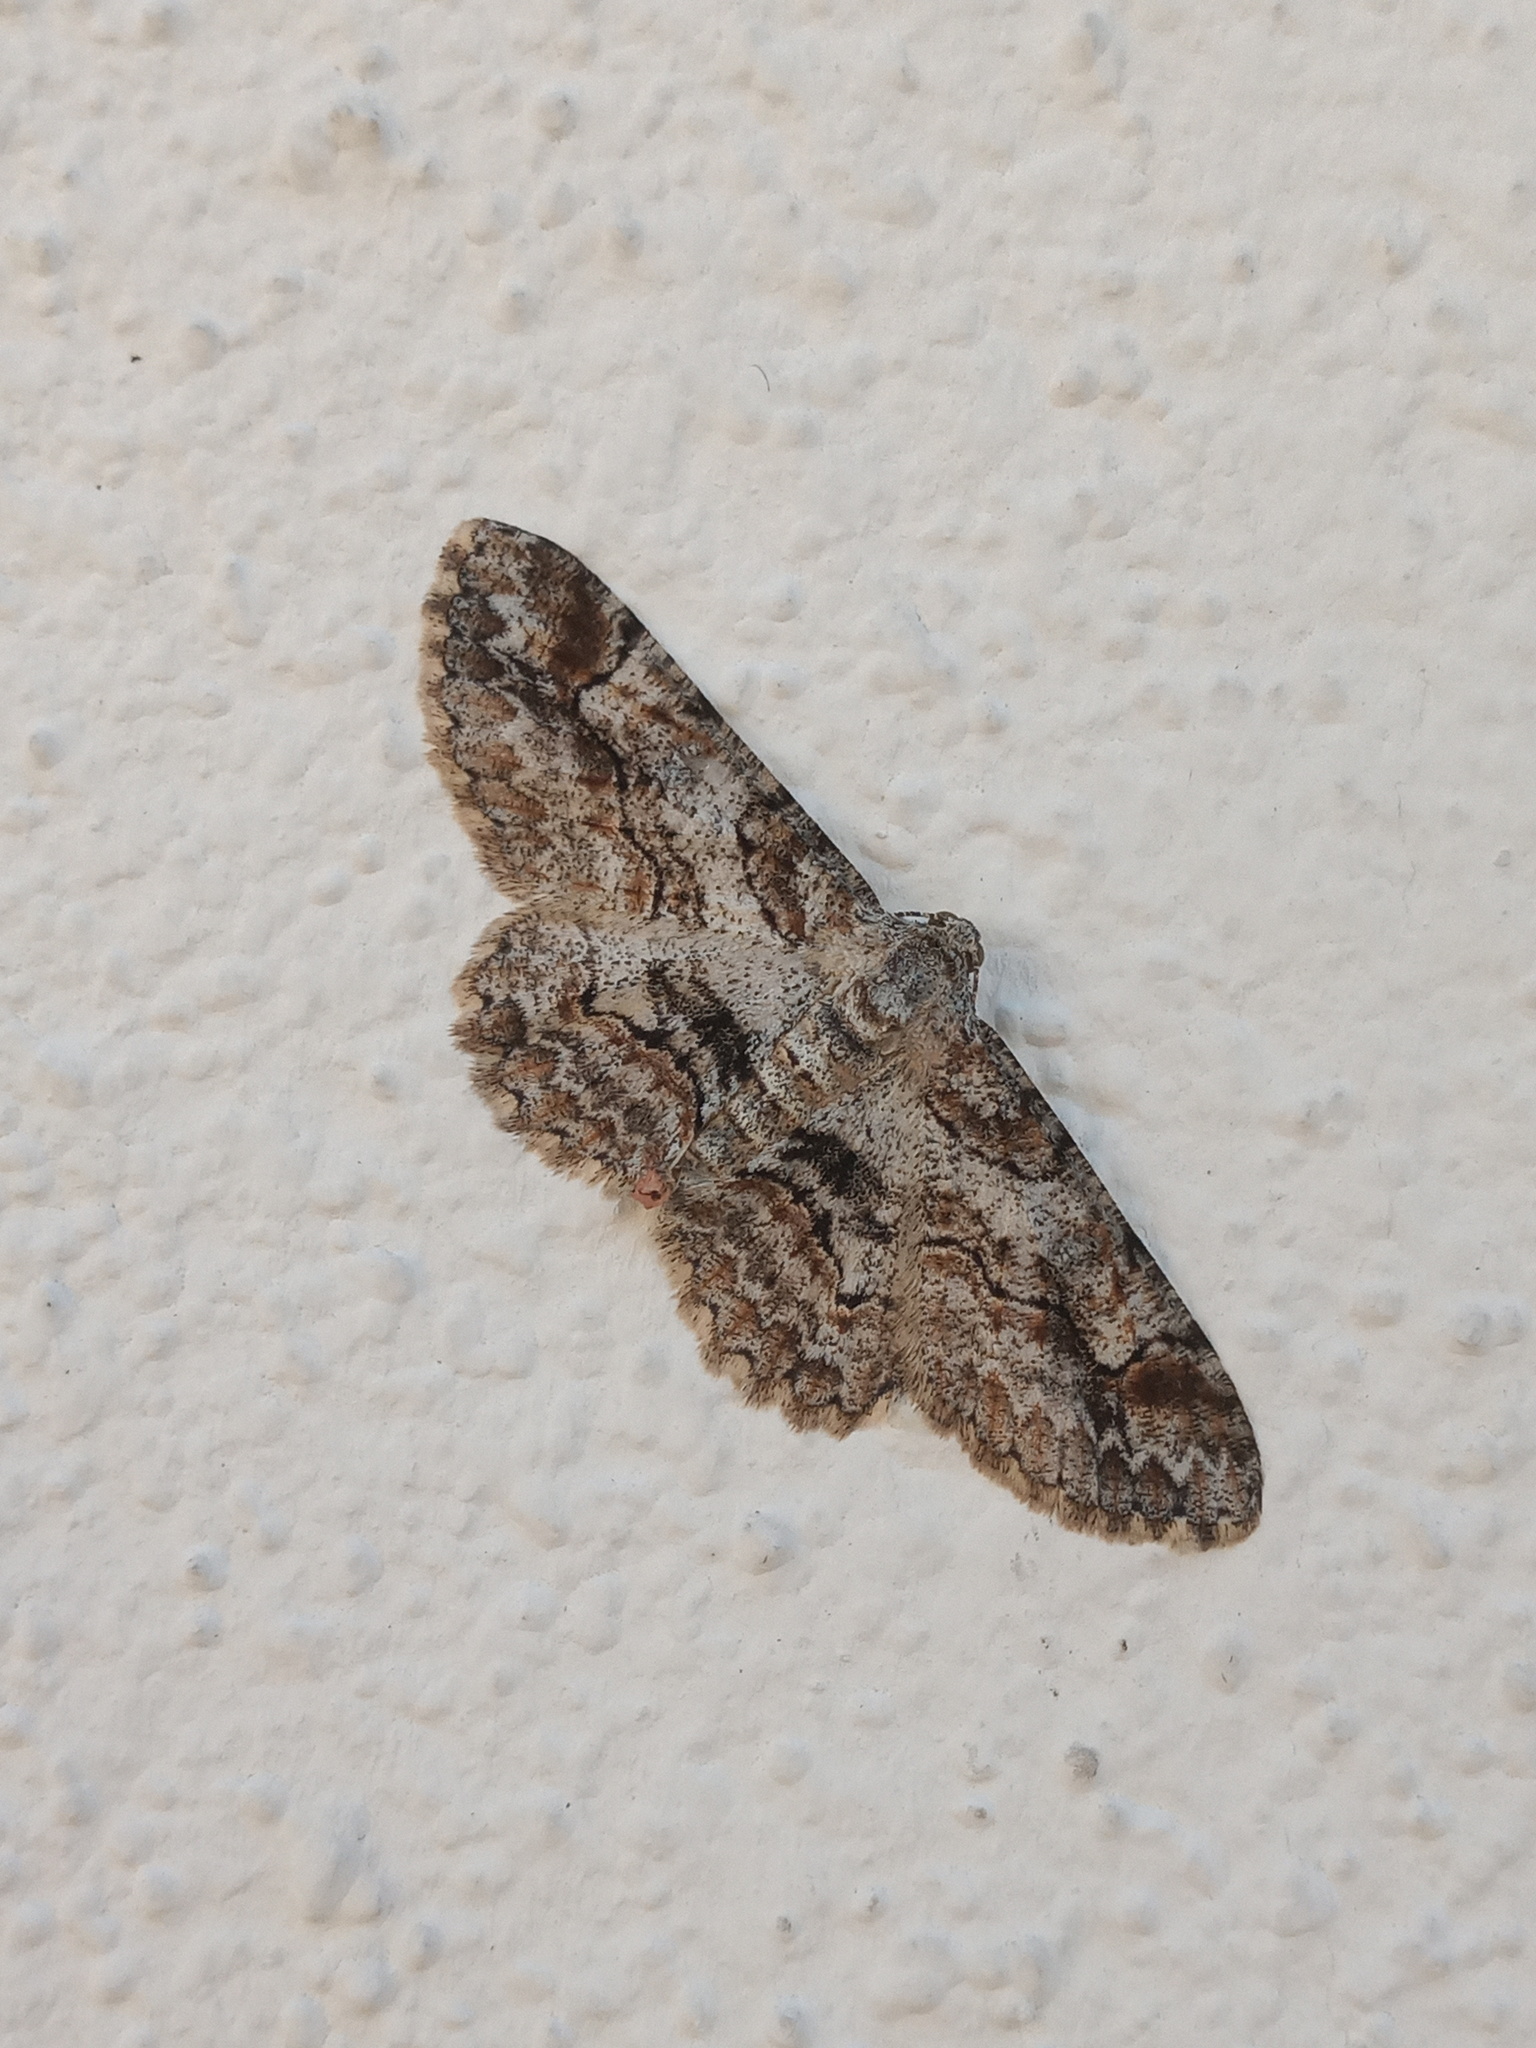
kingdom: Animalia
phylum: Arthropoda
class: Insecta
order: Lepidoptera
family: Geometridae
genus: Iridopsis
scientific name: Iridopsis emasculatum
